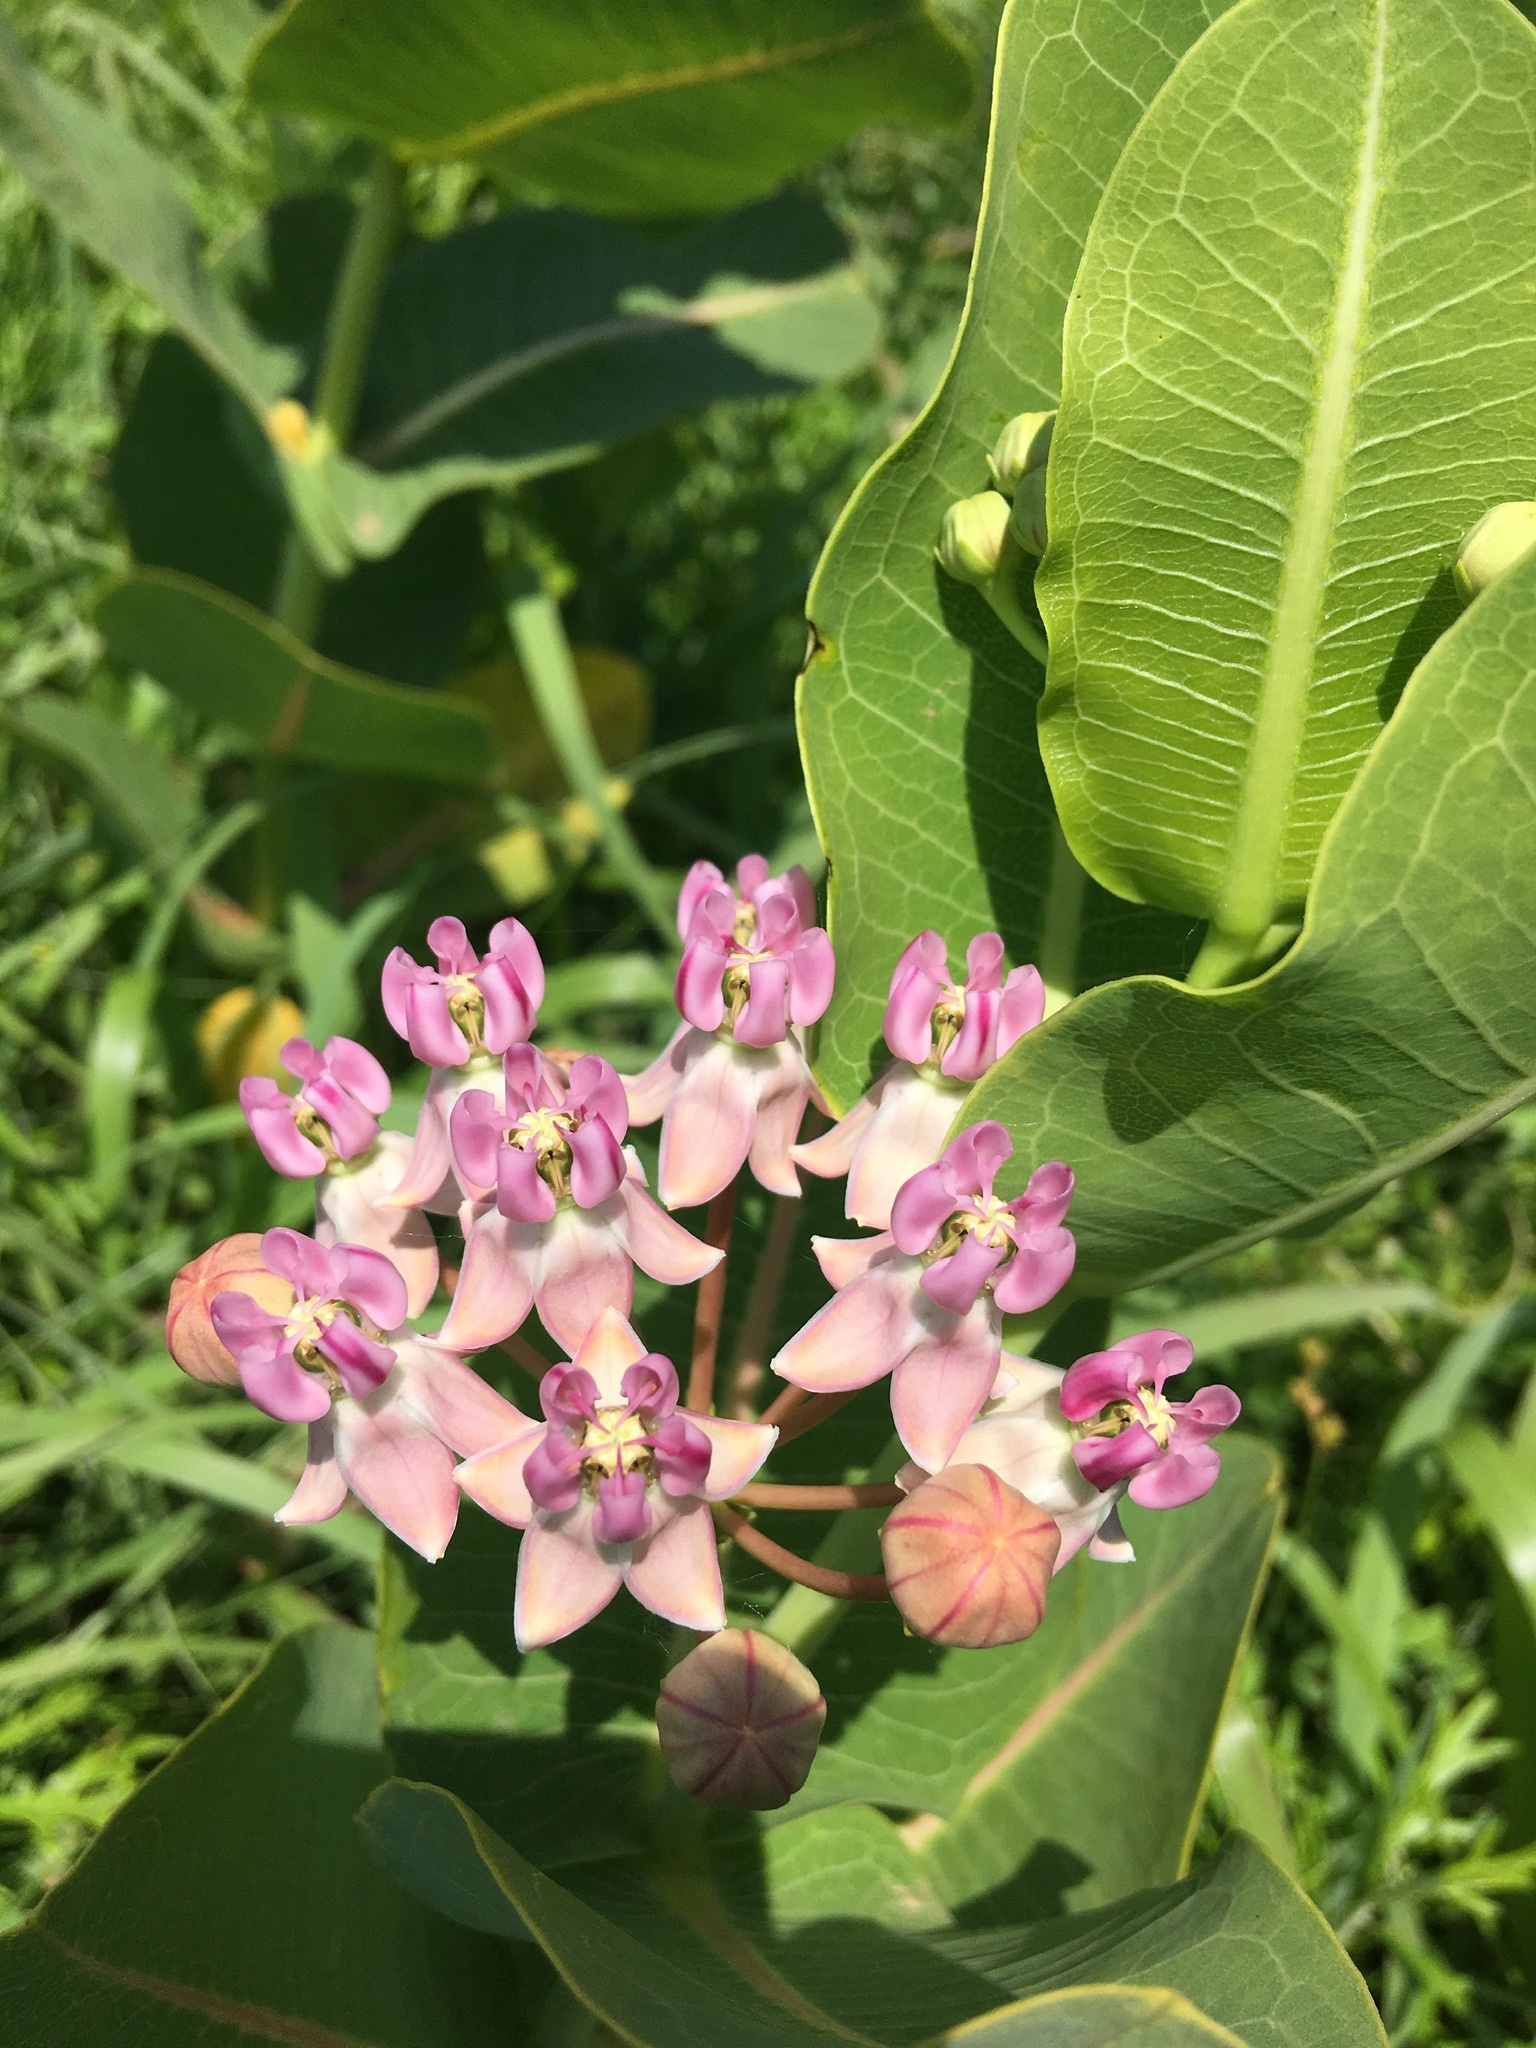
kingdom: Plantae
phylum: Tracheophyta
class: Magnoliopsida
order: Gentianales
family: Apocynaceae
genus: Asclepias
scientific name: Asclepias sullivantii
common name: Prairie milkweed
